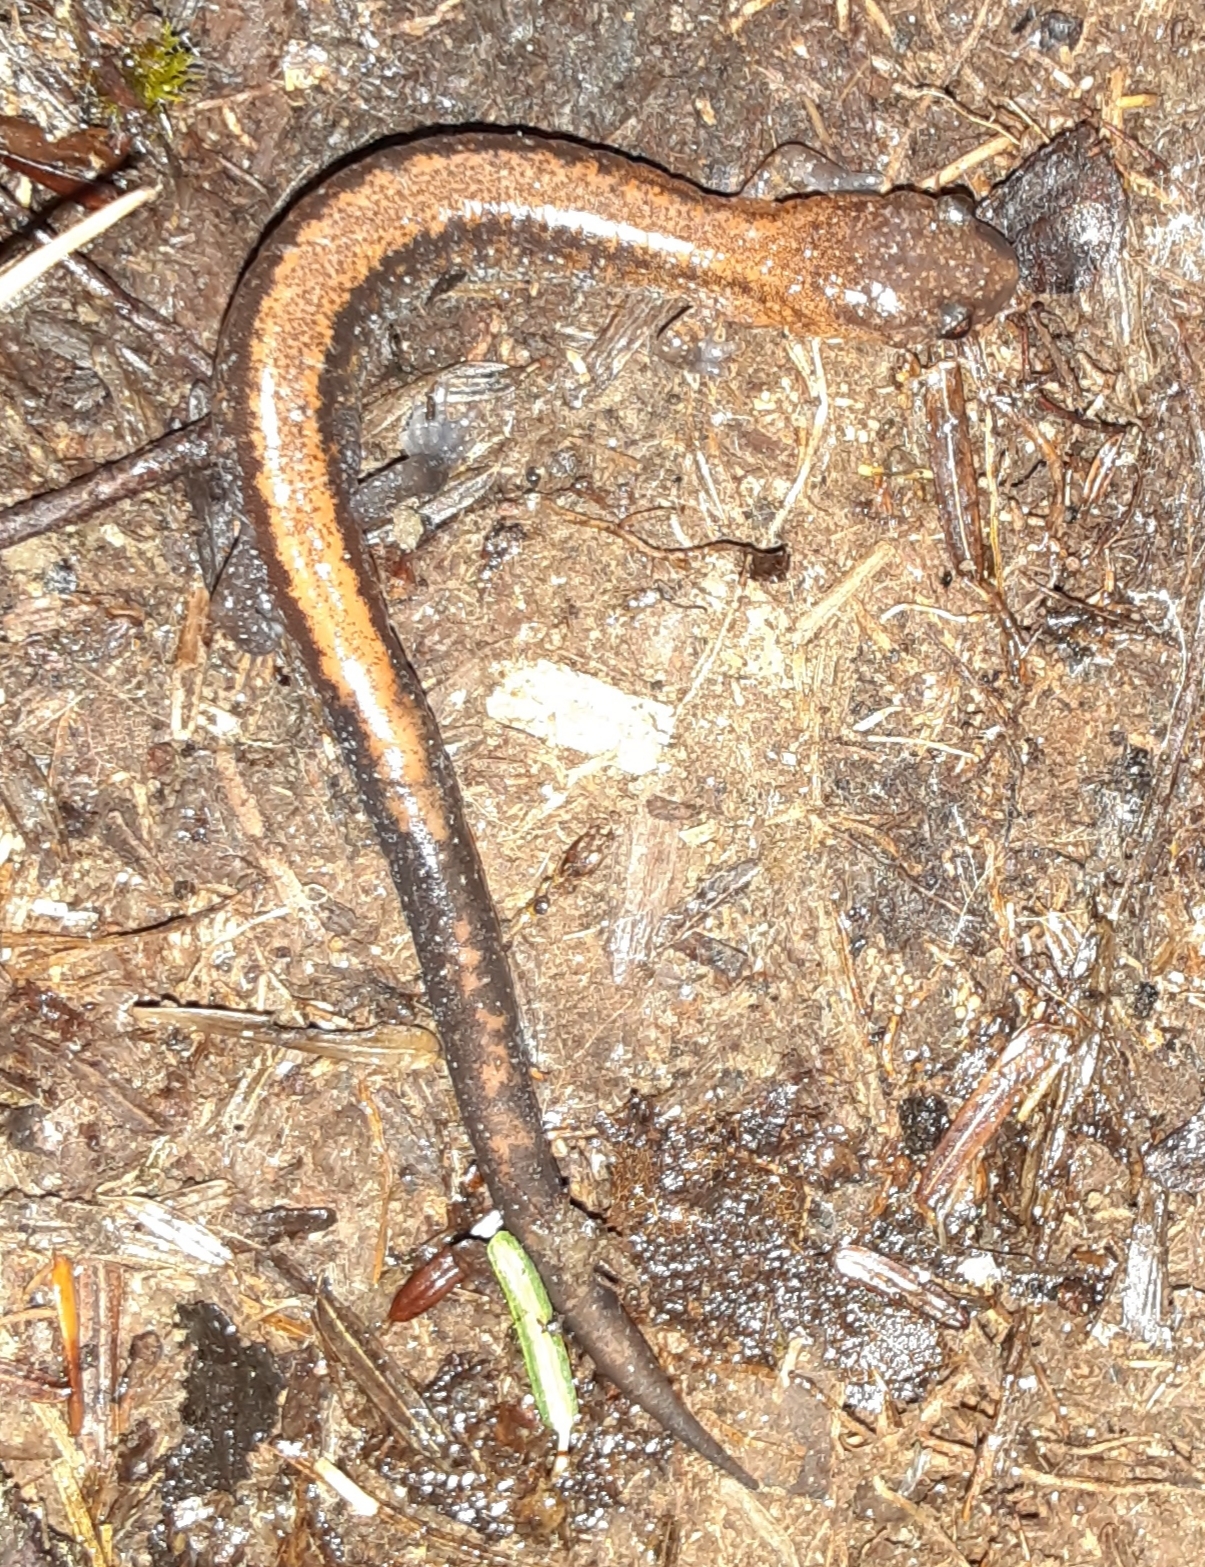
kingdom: Animalia
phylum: Chordata
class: Amphibia
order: Caudata
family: Plethodontidae
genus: Plethodon
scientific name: Plethodon cinereus
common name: Redback salamander
